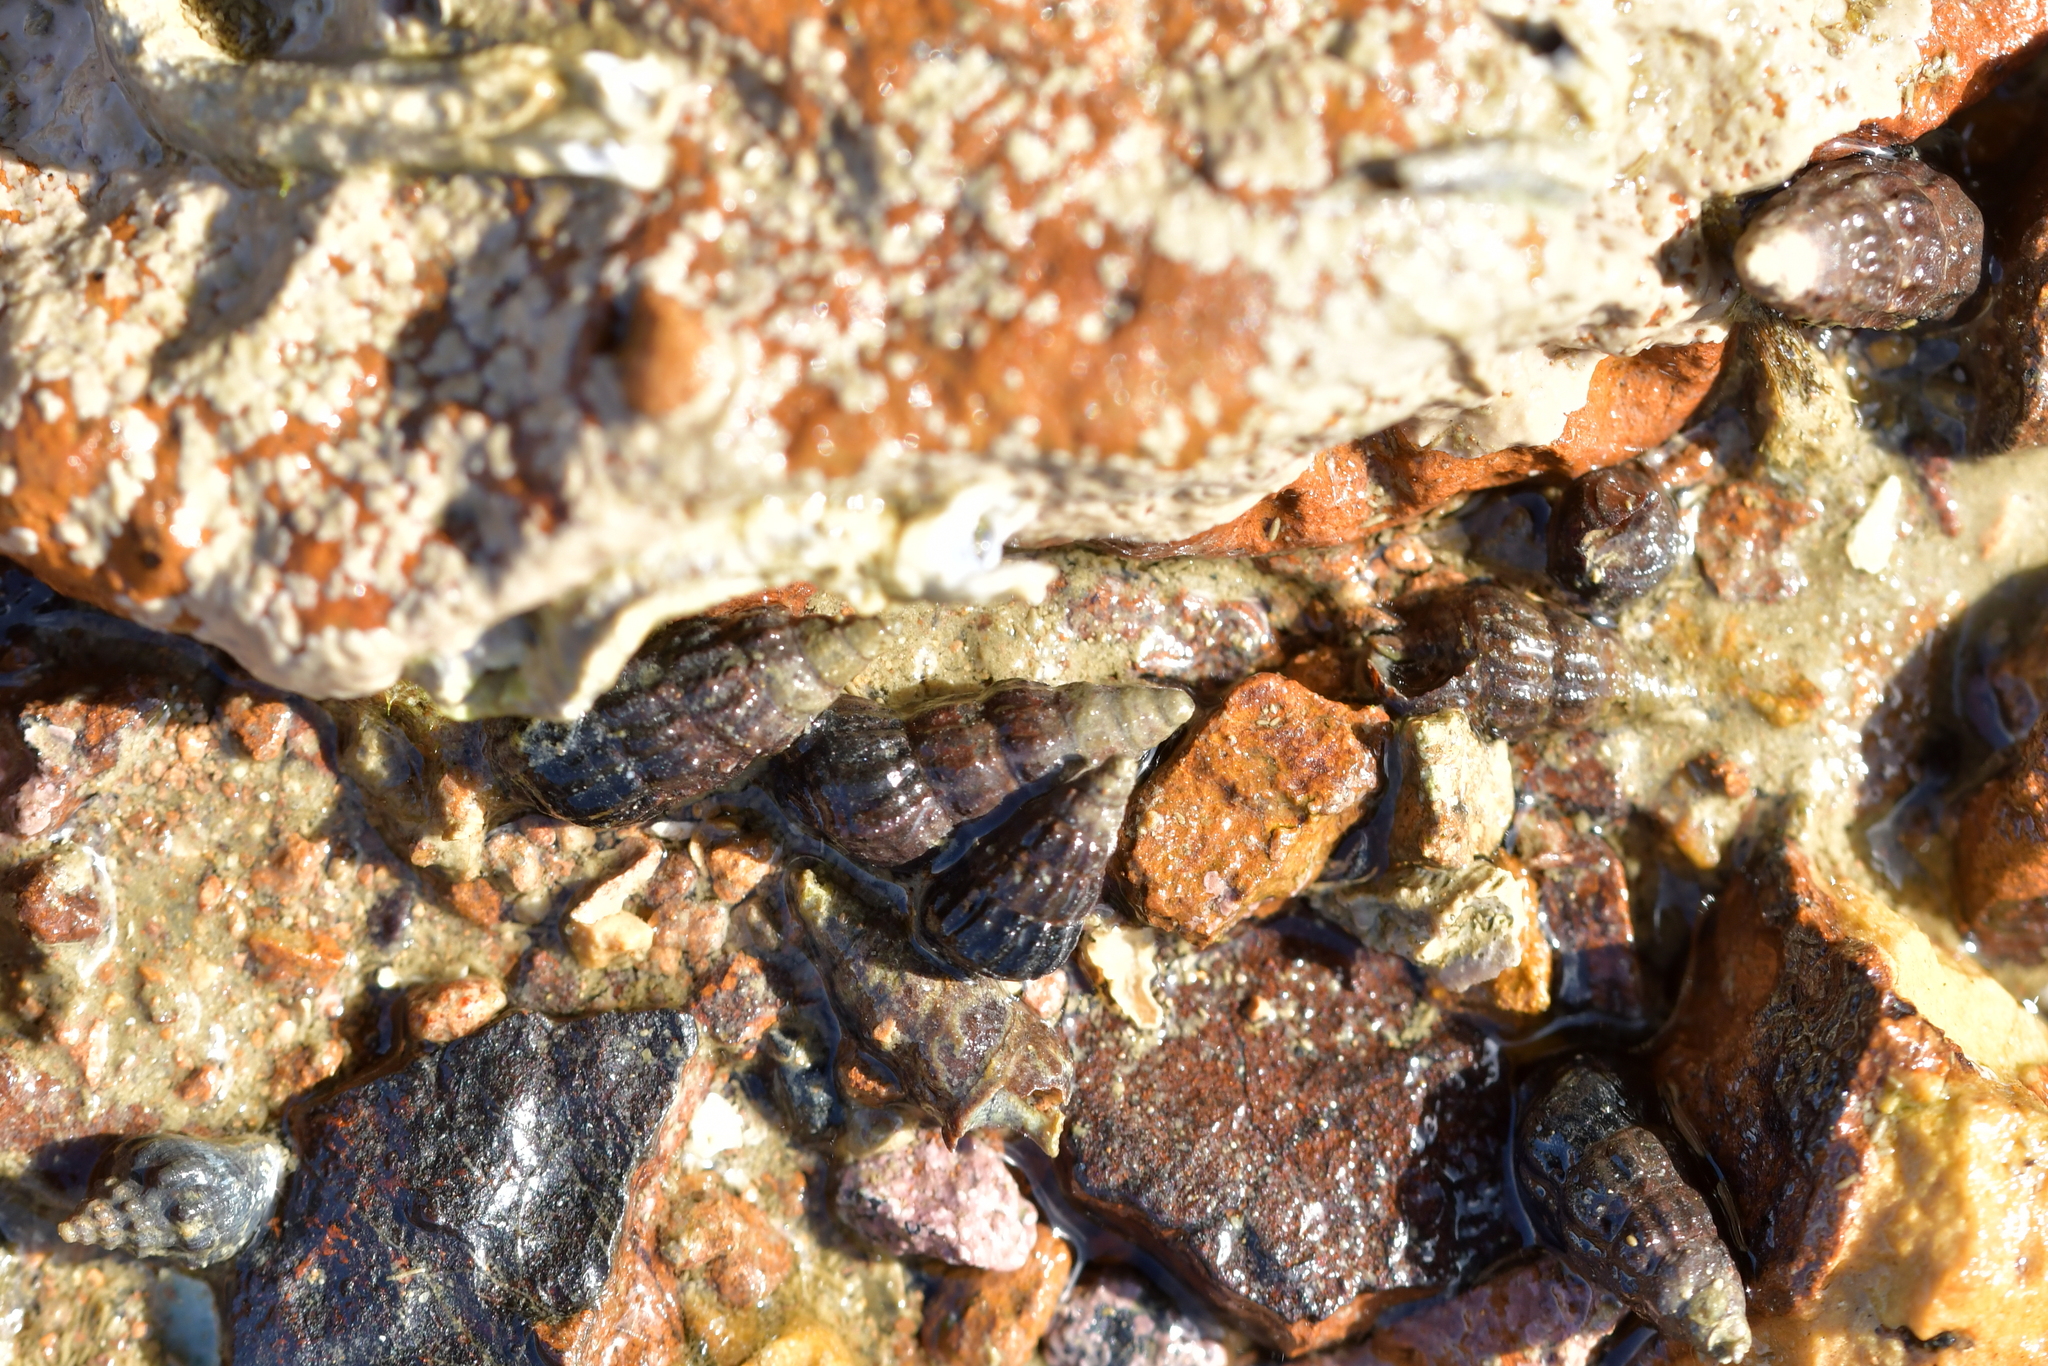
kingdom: Animalia
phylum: Mollusca
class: Gastropoda
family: Batillariidae
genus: Zeacumantus
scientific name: Zeacumantus subcarinatus
